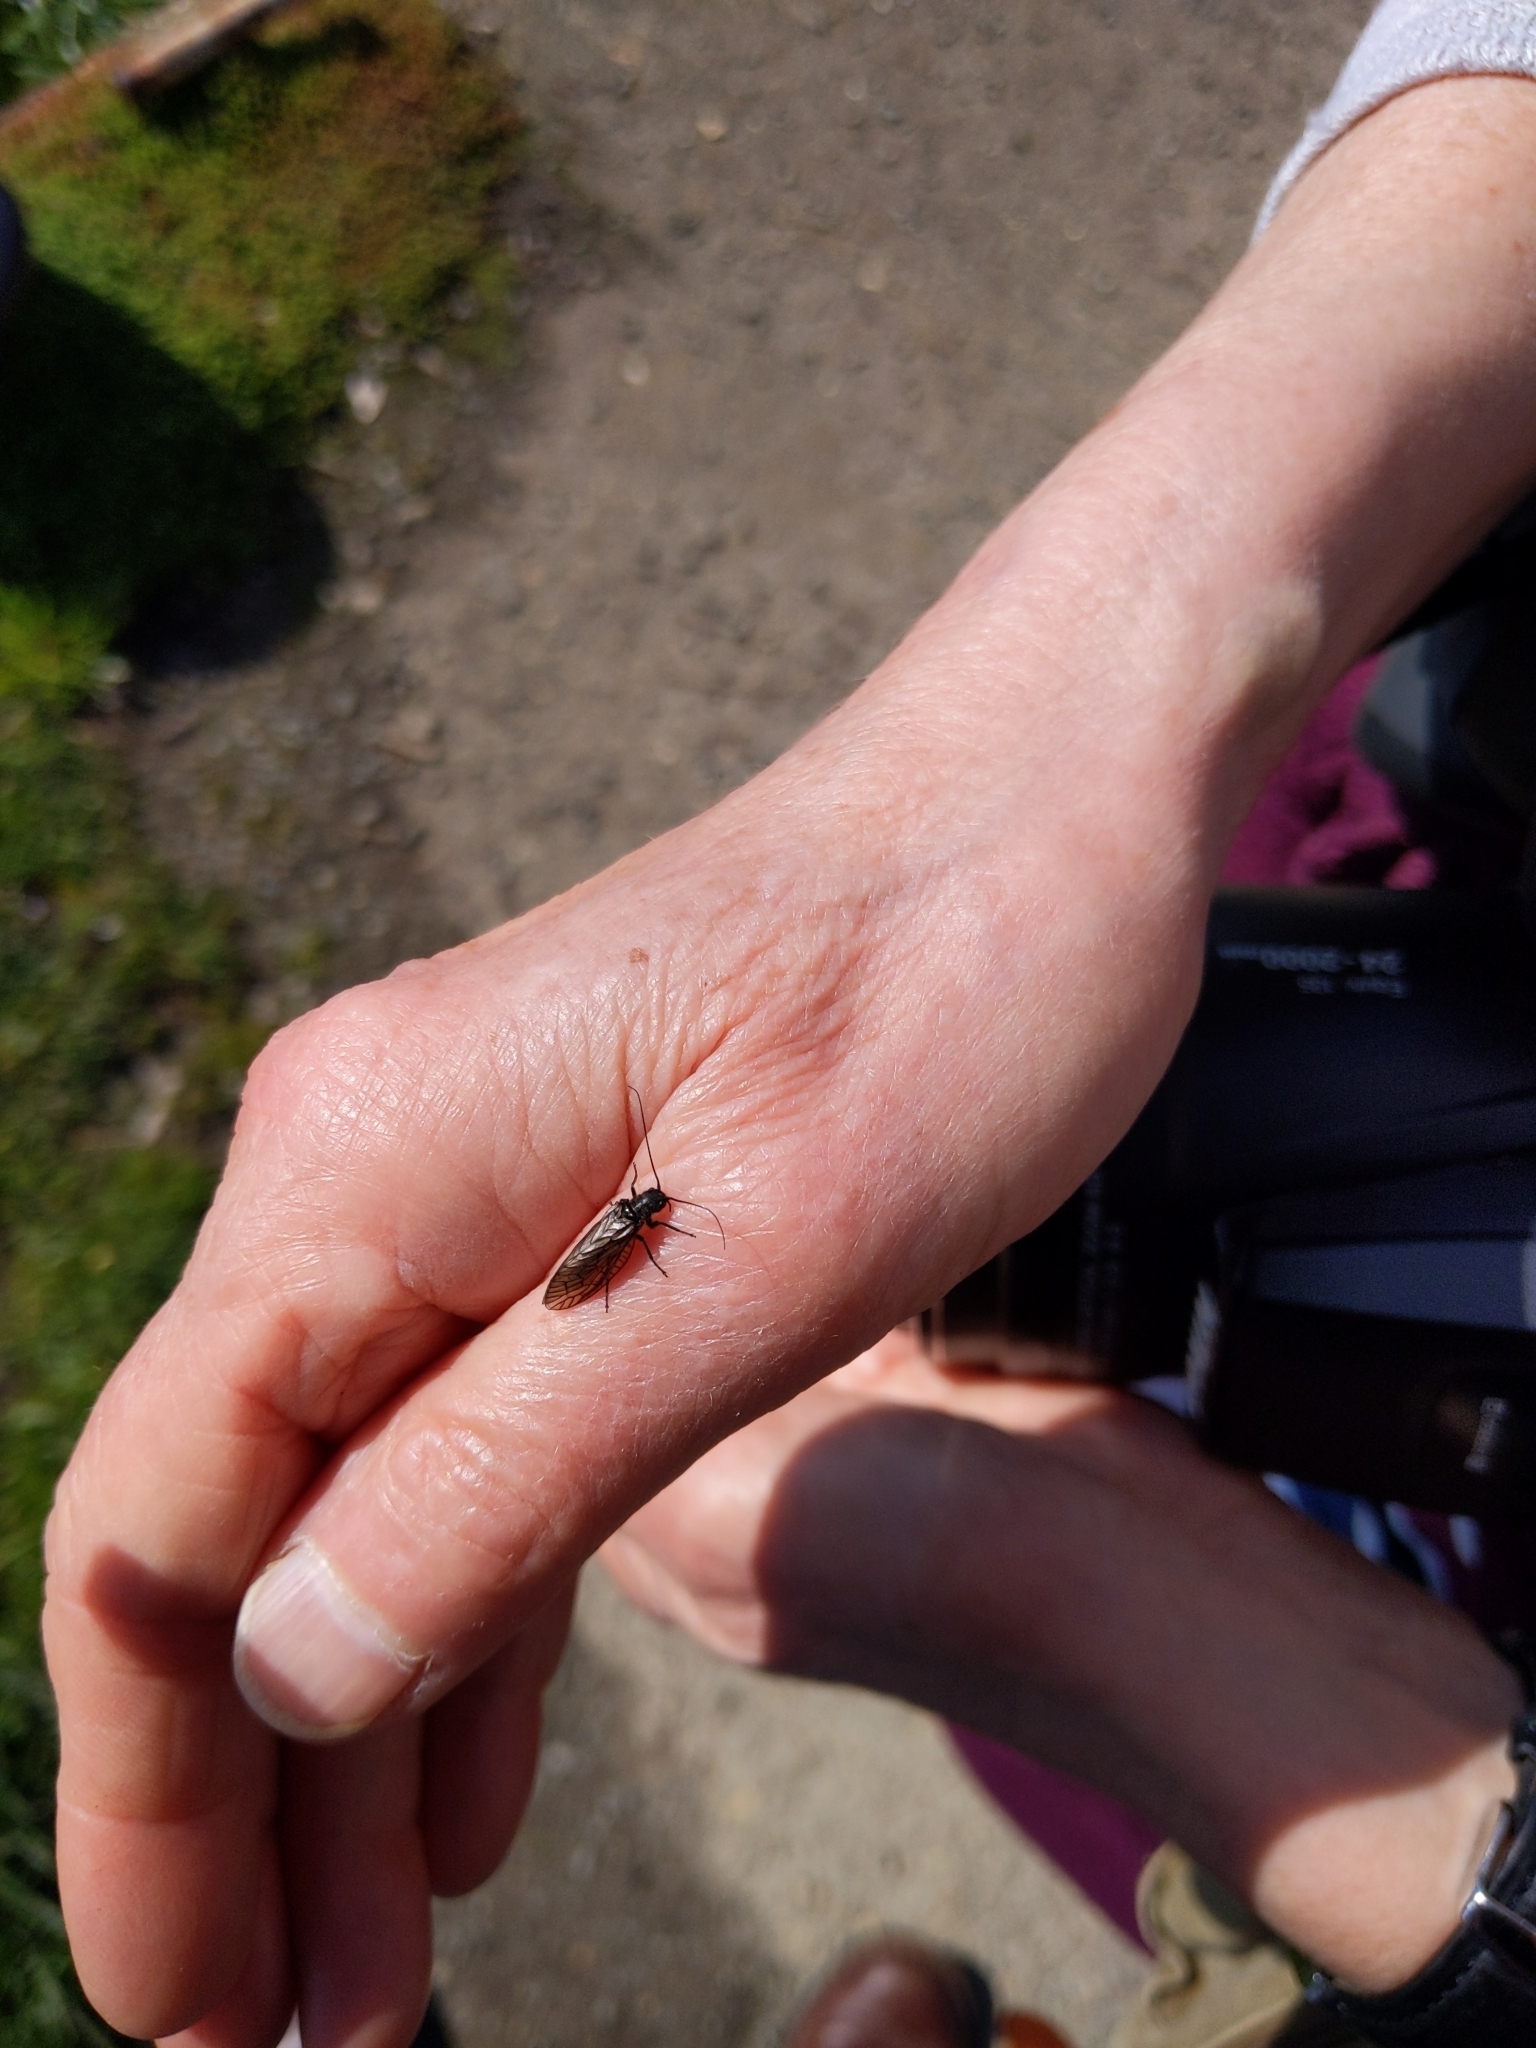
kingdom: Animalia
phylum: Arthropoda
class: Insecta
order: Megaloptera
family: Sialidae
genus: Sialis
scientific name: Sialis
